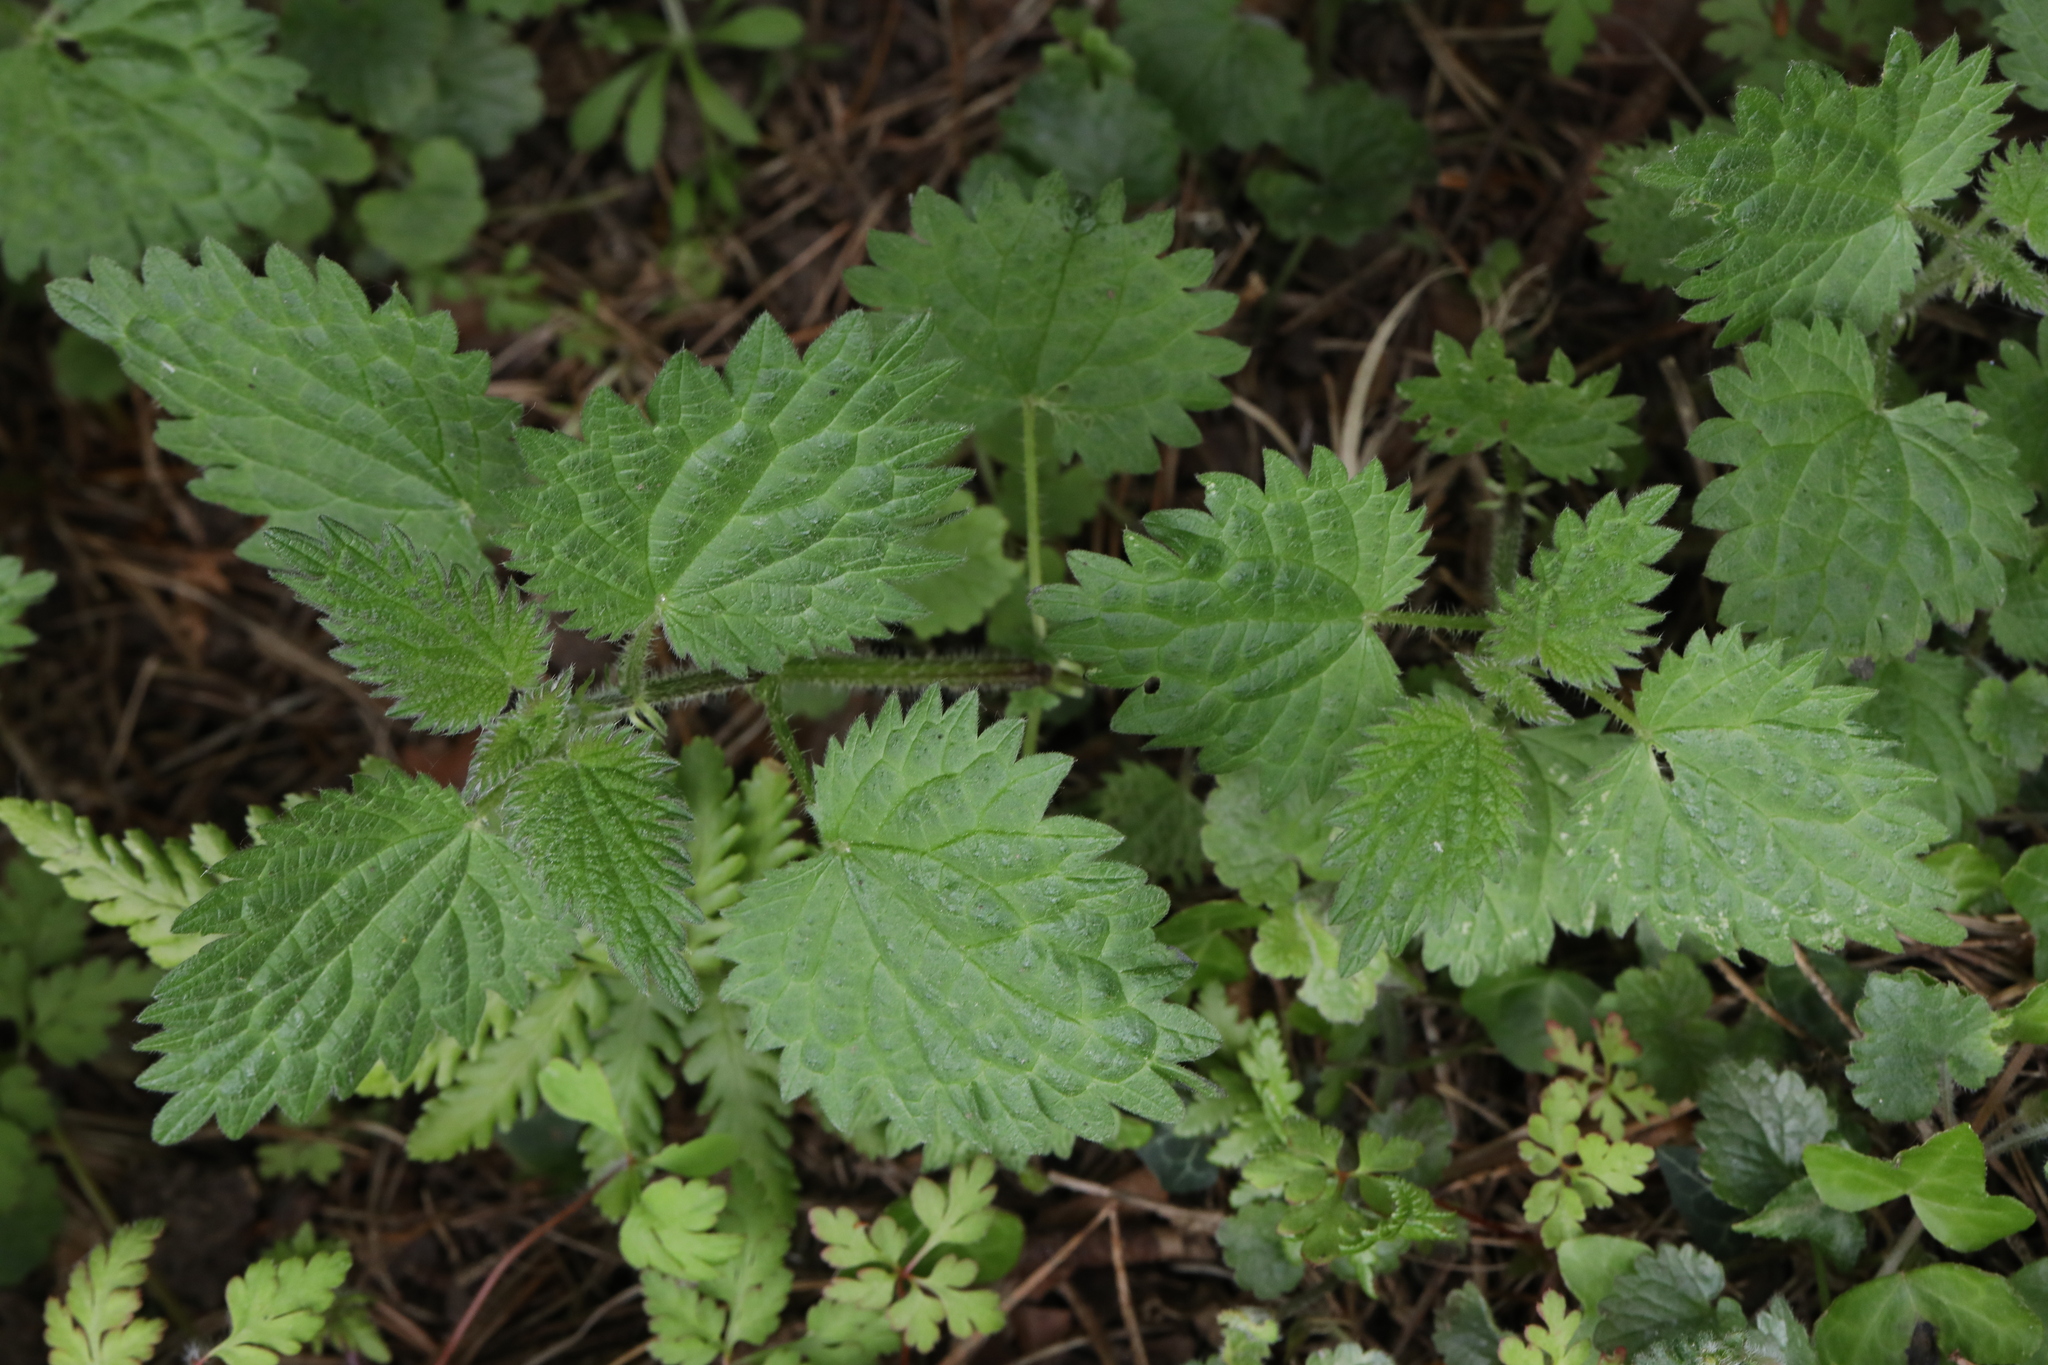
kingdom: Plantae
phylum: Tracheophyta
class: Magnoliopsida
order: Rosales
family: Urticaceae
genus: Urtica
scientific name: Urtica dioica
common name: Common nettle
